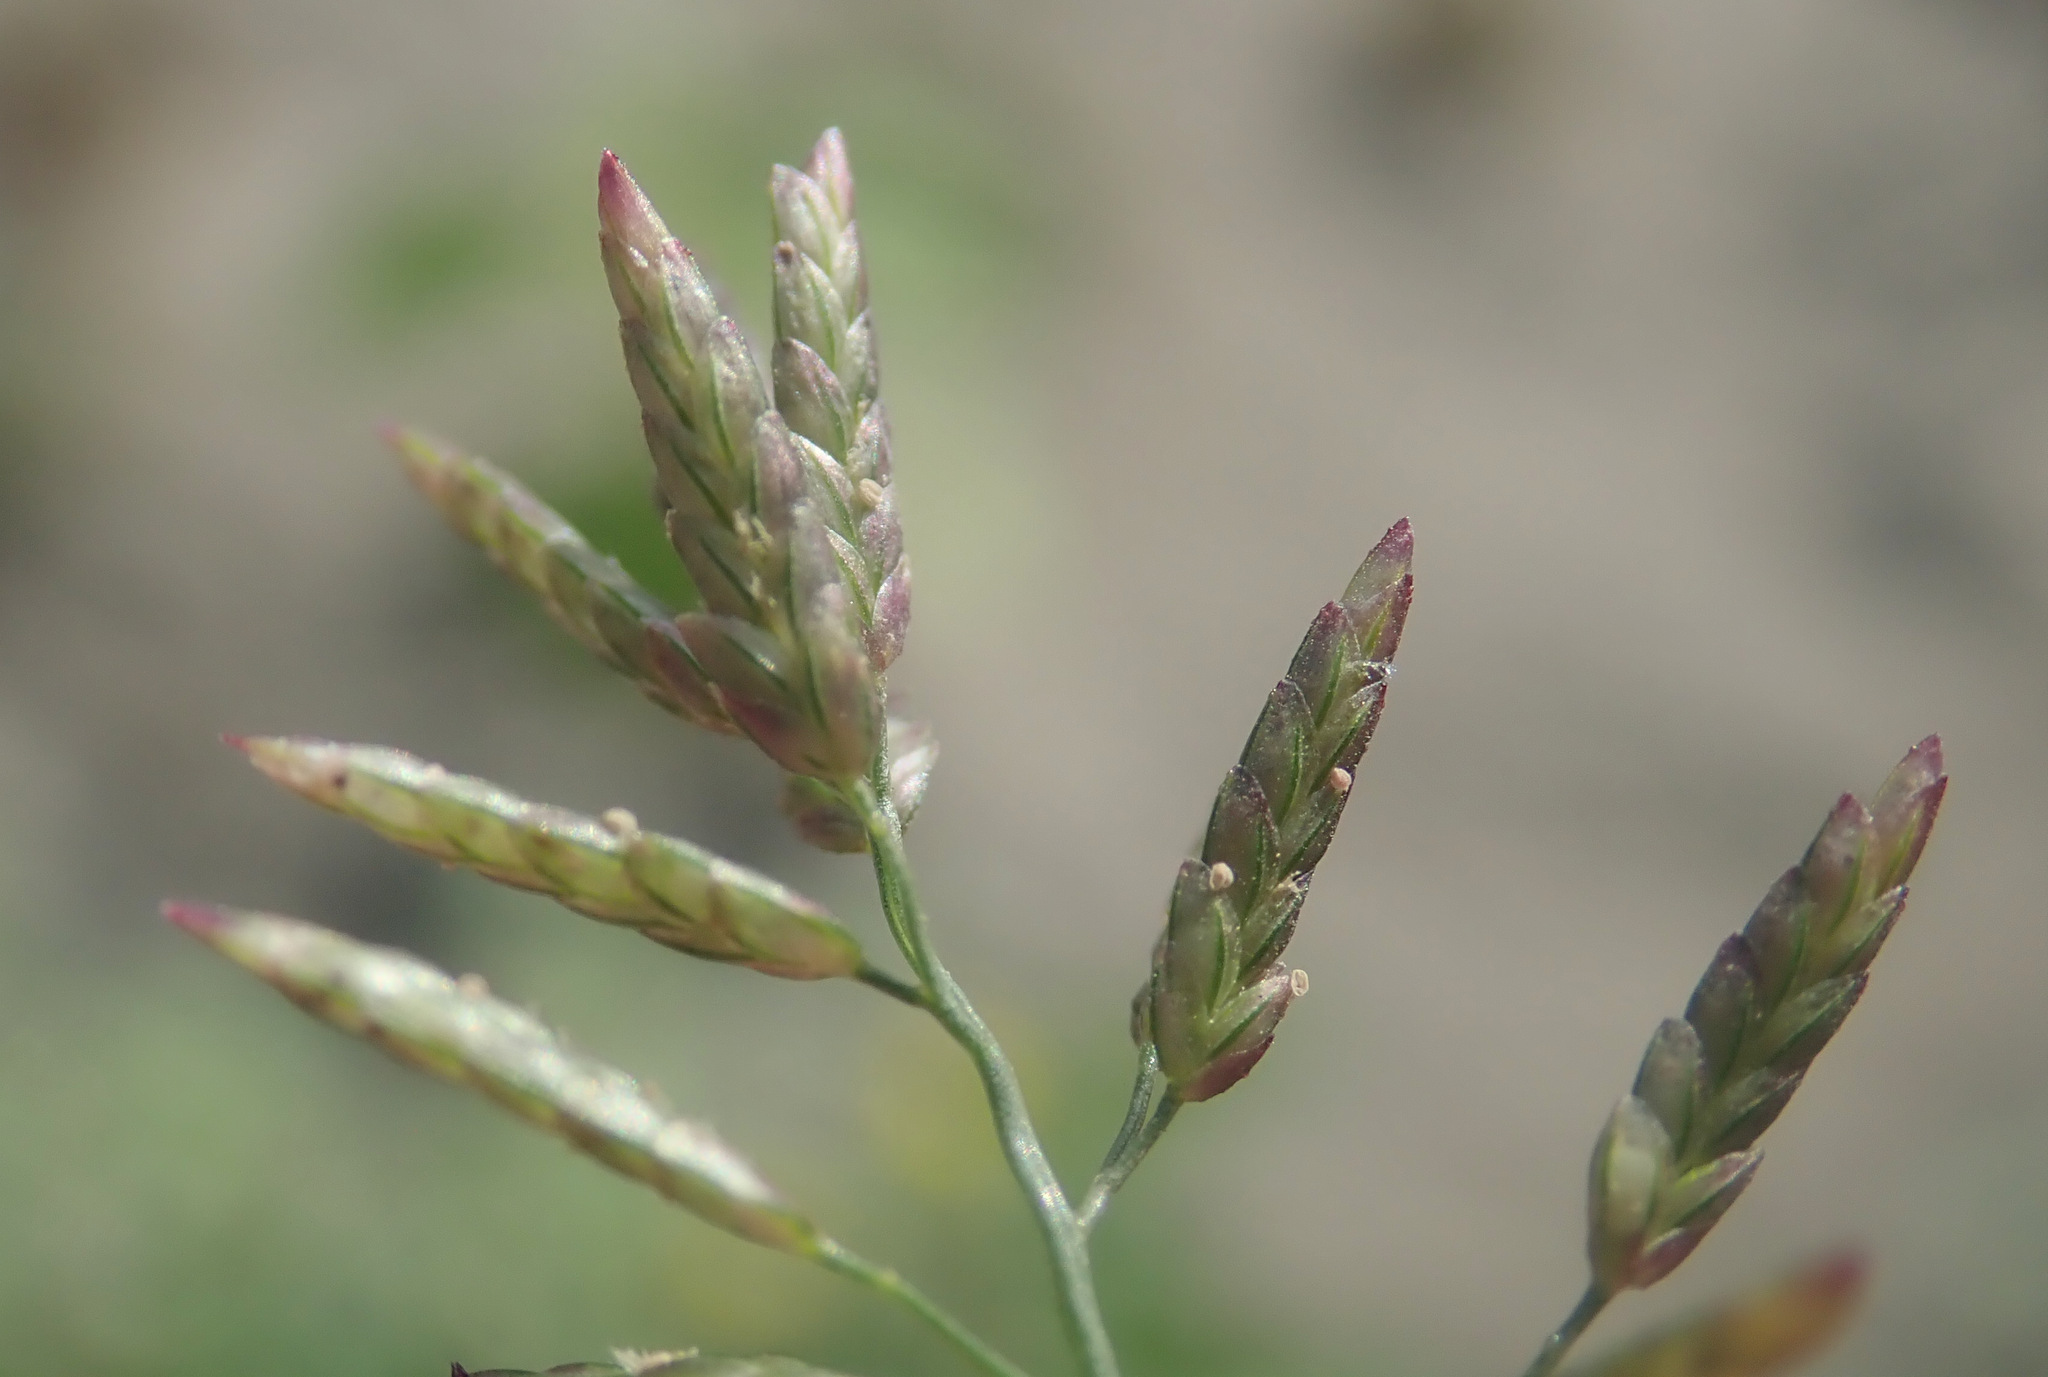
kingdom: Plantae
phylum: Tracheophyta
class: Liliopsida
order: Poales
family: Poaceae
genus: Eragrostis
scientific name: Eragrostis minor
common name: Small love-grass
